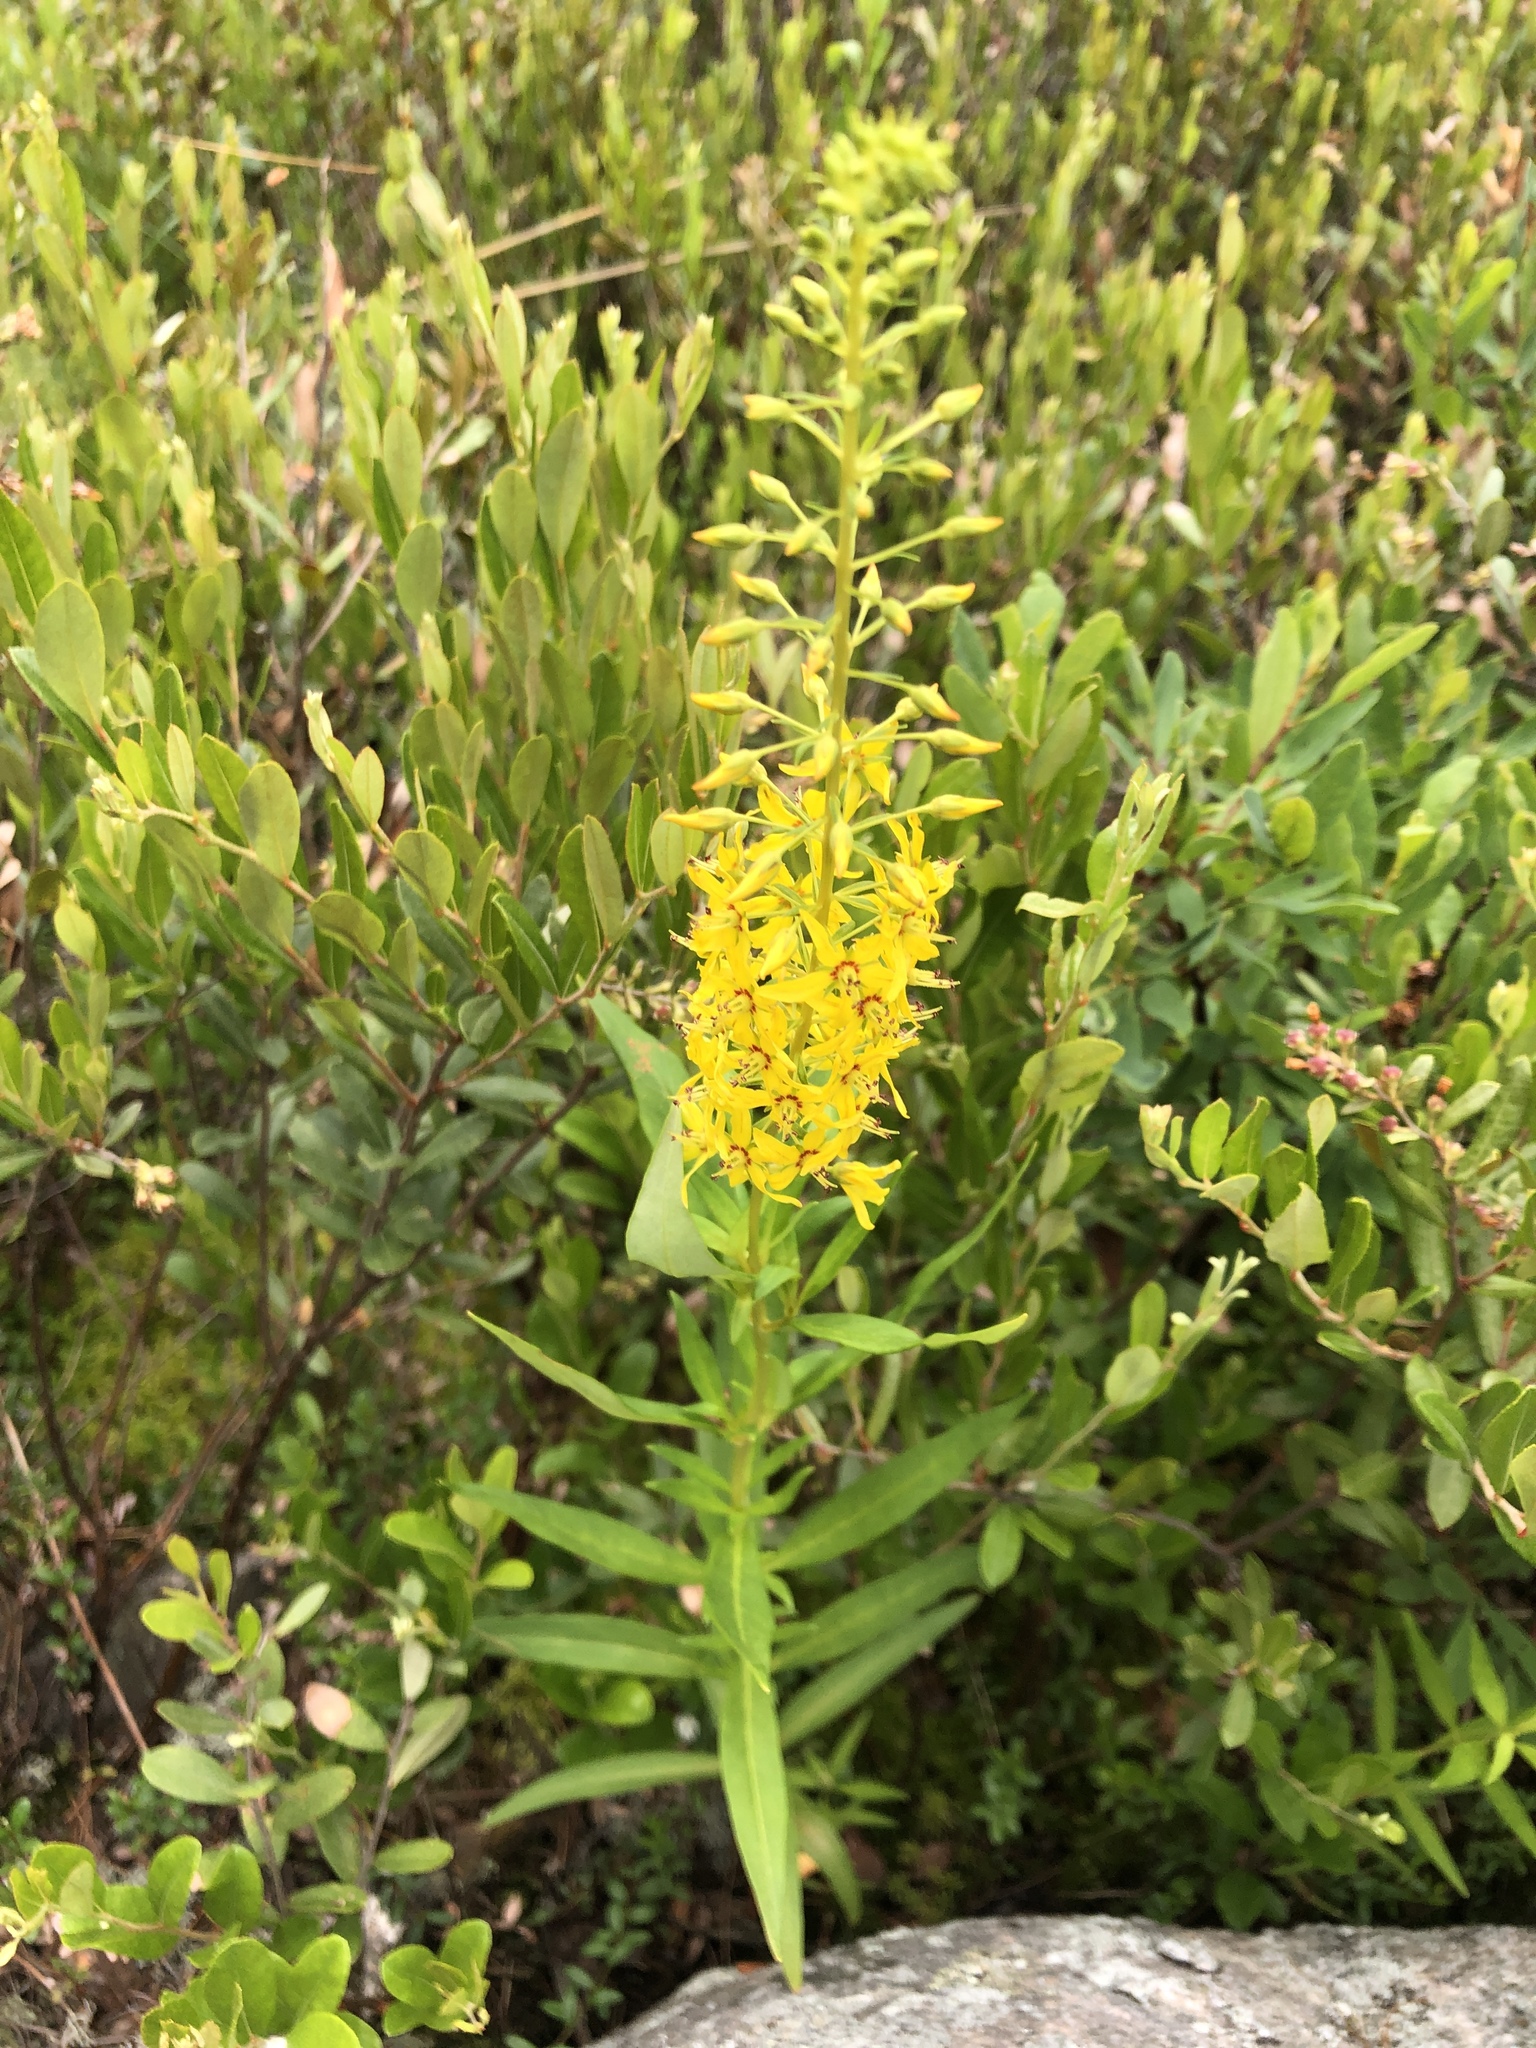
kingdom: Plantae
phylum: Tracheophyta
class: Magnoliopsida
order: Ericales
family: Primulaceae
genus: Lysimachia
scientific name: Lysimachia terrestris
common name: Lake loosestrife
